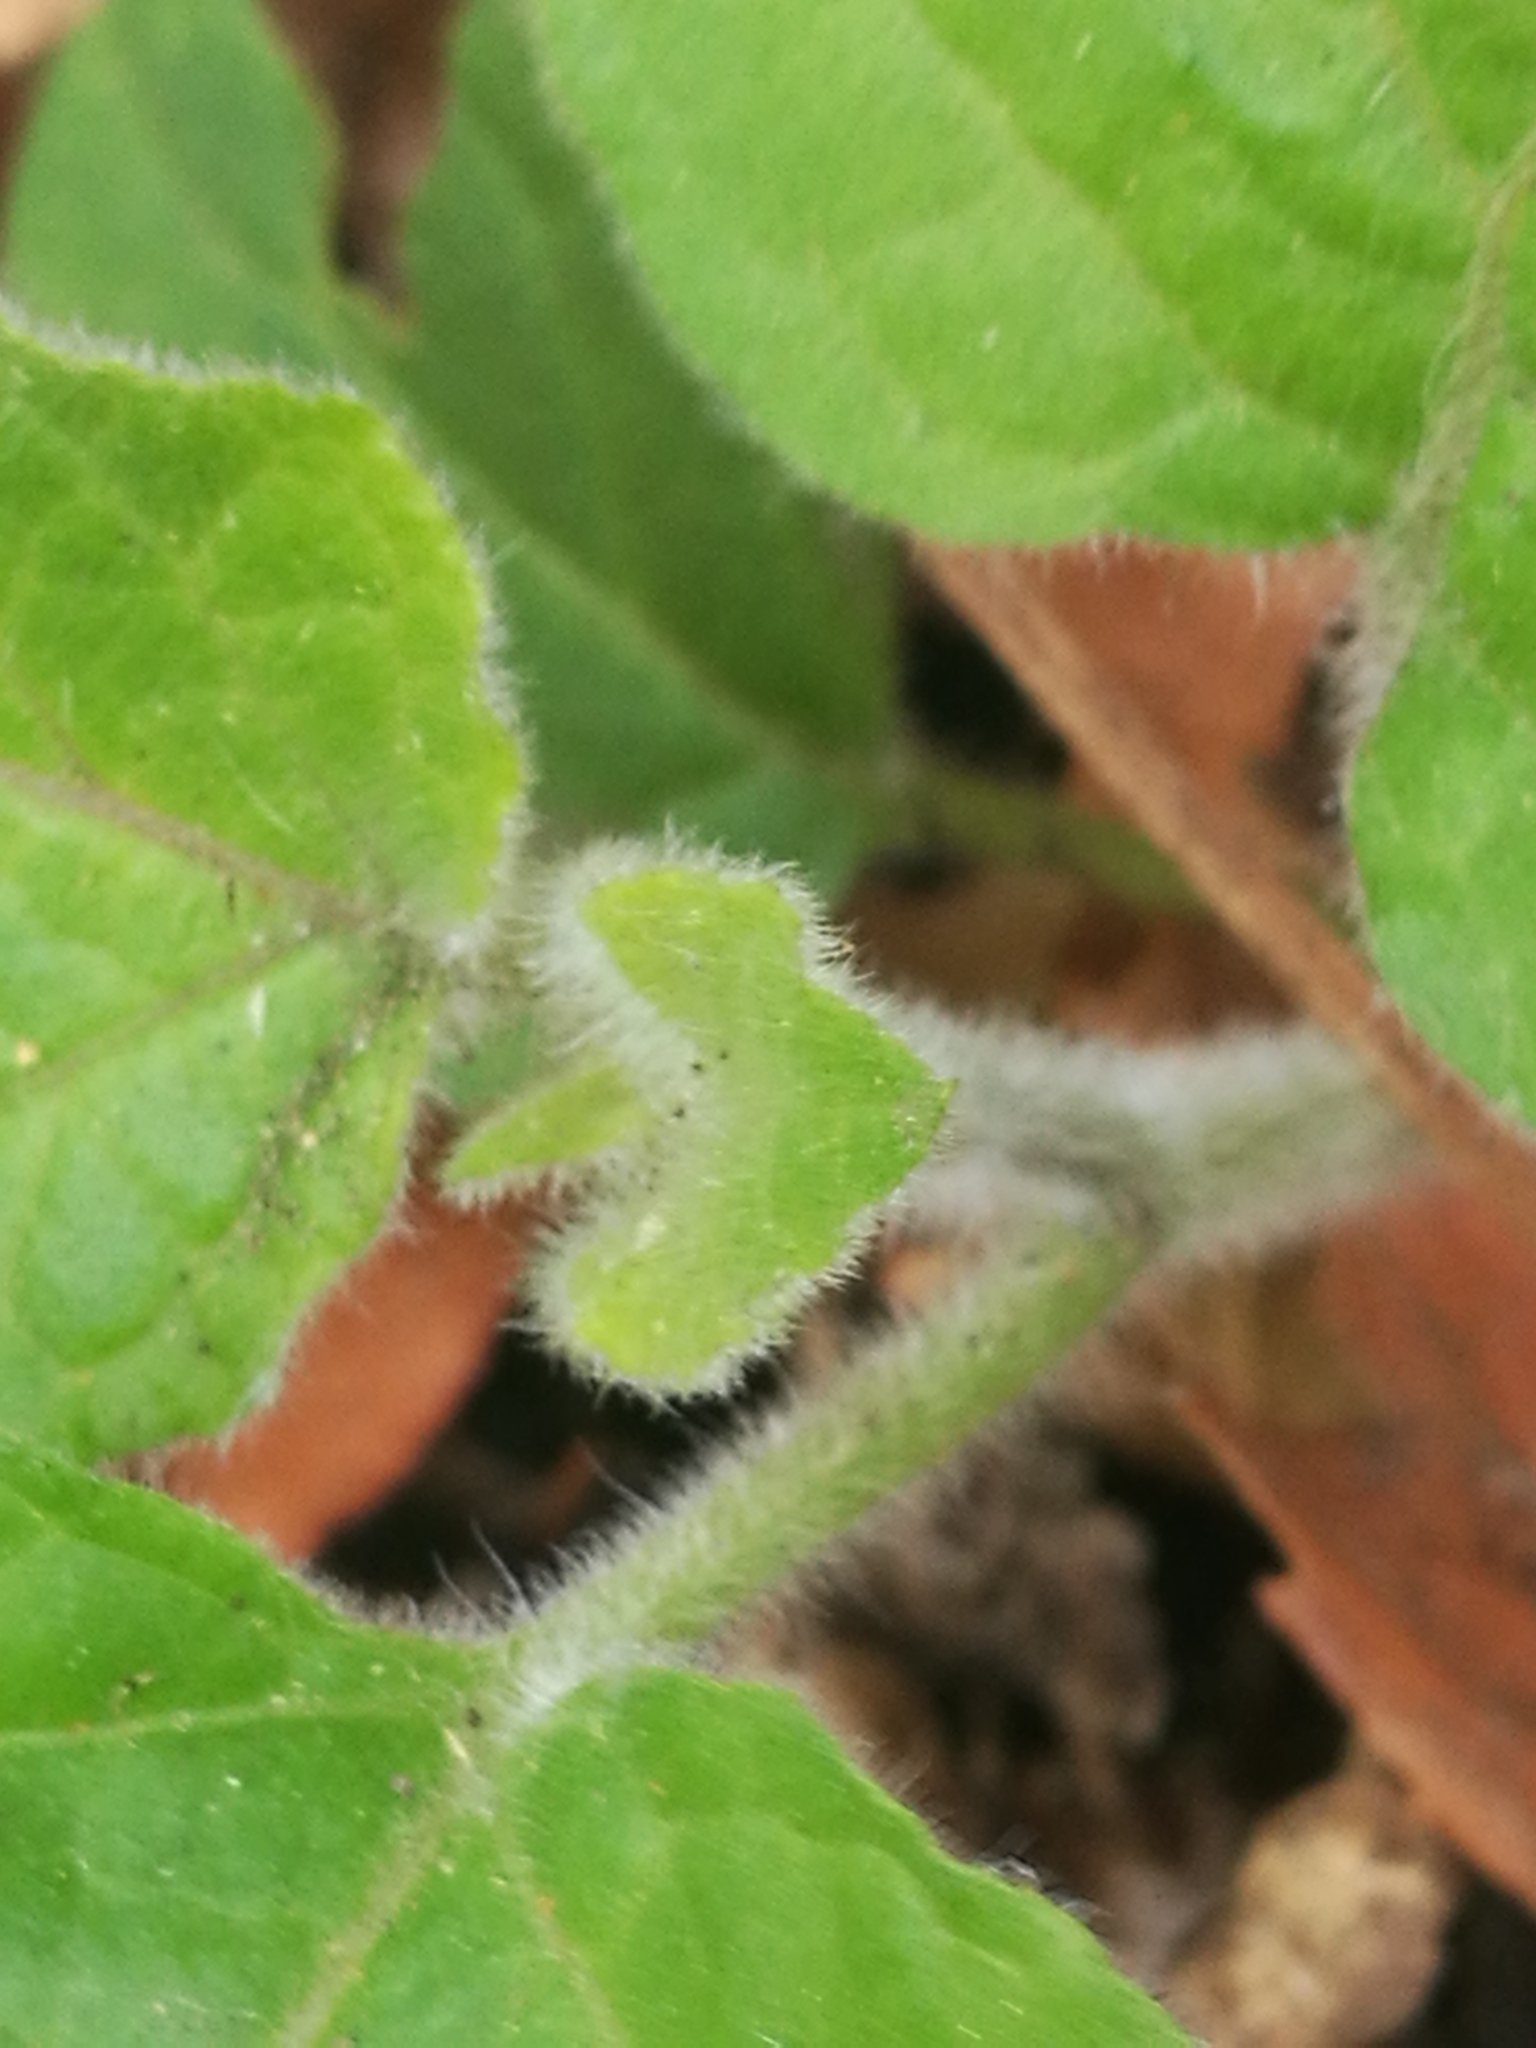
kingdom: Plantae
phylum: Tracheophyta
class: Magnoliopsida
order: Solanales
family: Solanaceae
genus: Physalis
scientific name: Physalis peruviana
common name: Cape-gooseberry
